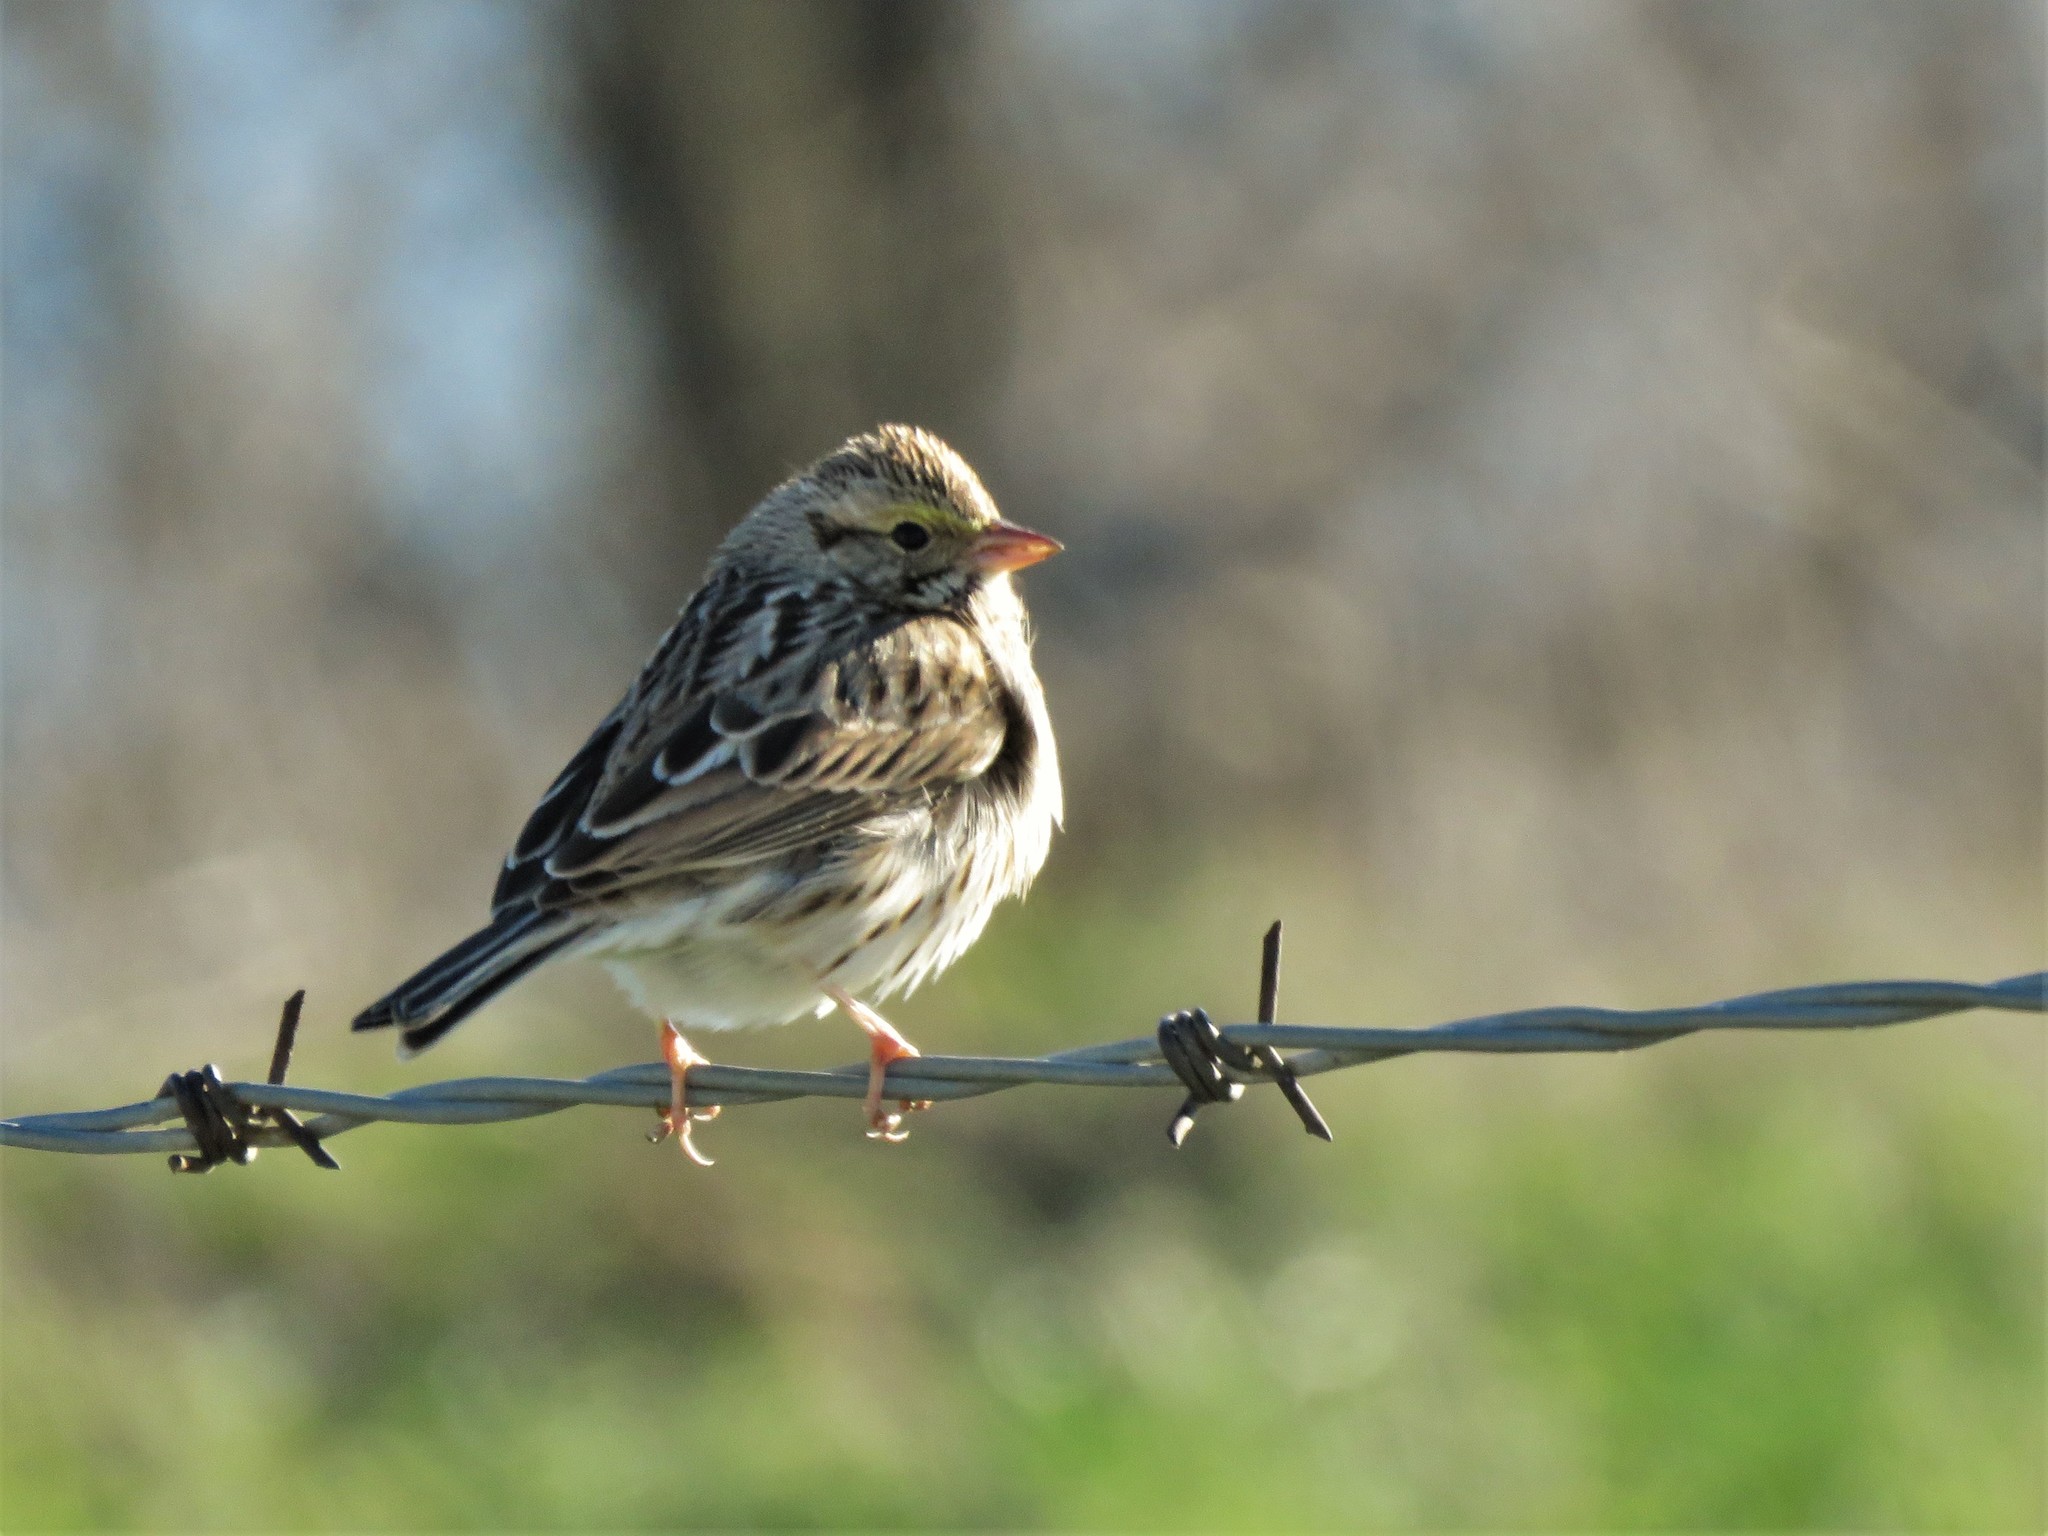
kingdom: Animalia
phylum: Chordata
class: Aves
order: Passeriformes
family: Passerellidae
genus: Passerculus
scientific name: Passerculus sandwichensis
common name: Savannah sparrow
